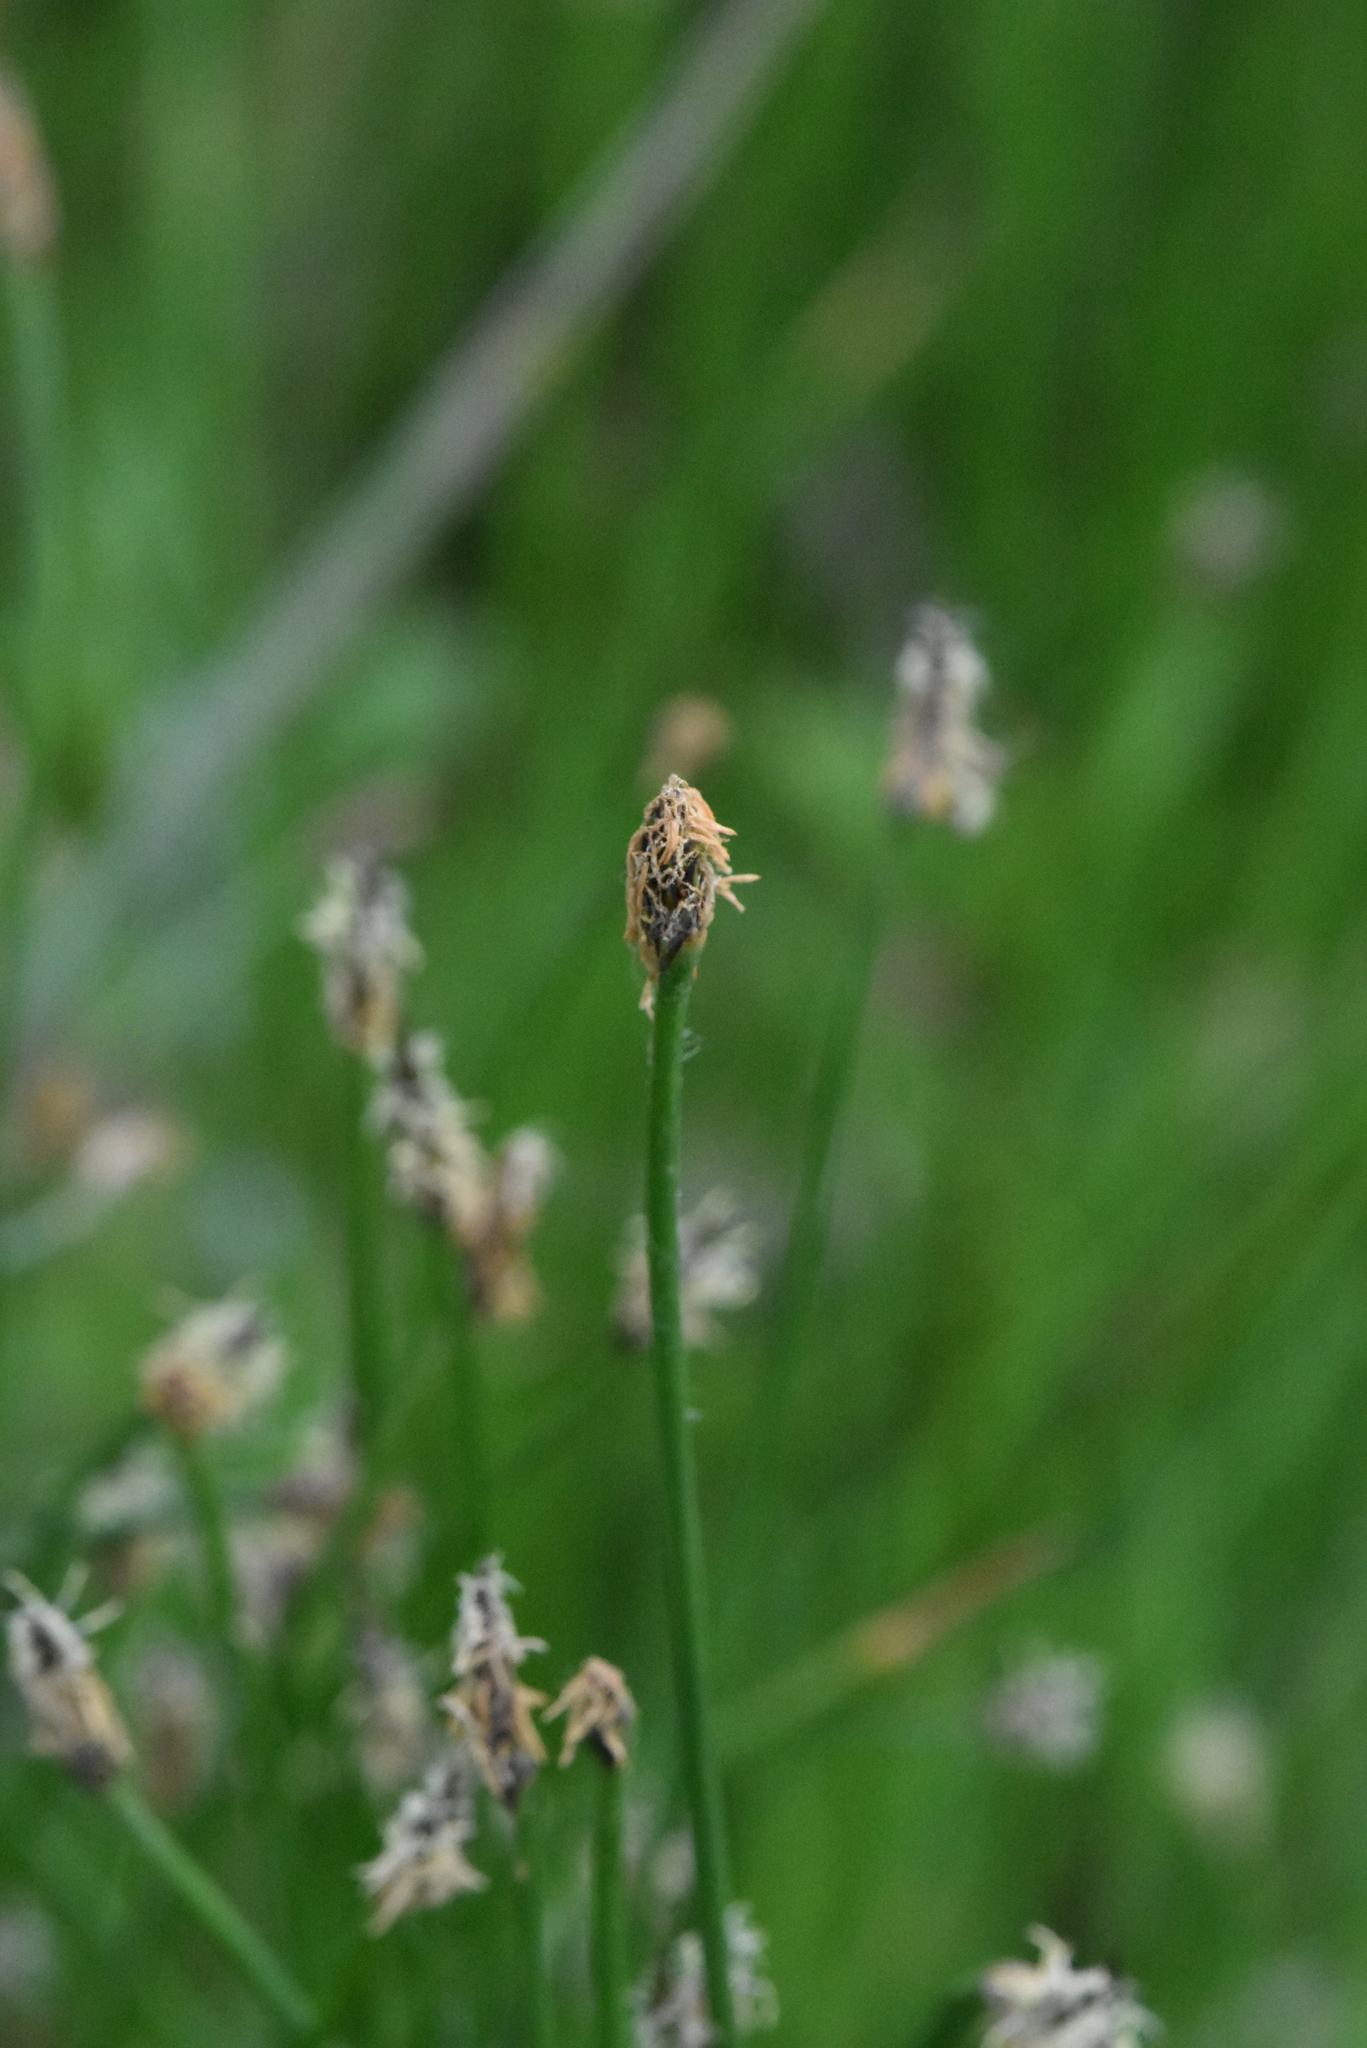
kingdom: Plantae
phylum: Tracheophyta
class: Liliopsida
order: Poales
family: Cyperaceae
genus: Eleocharis
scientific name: Eleocharis palustris
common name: Common spike-rush
